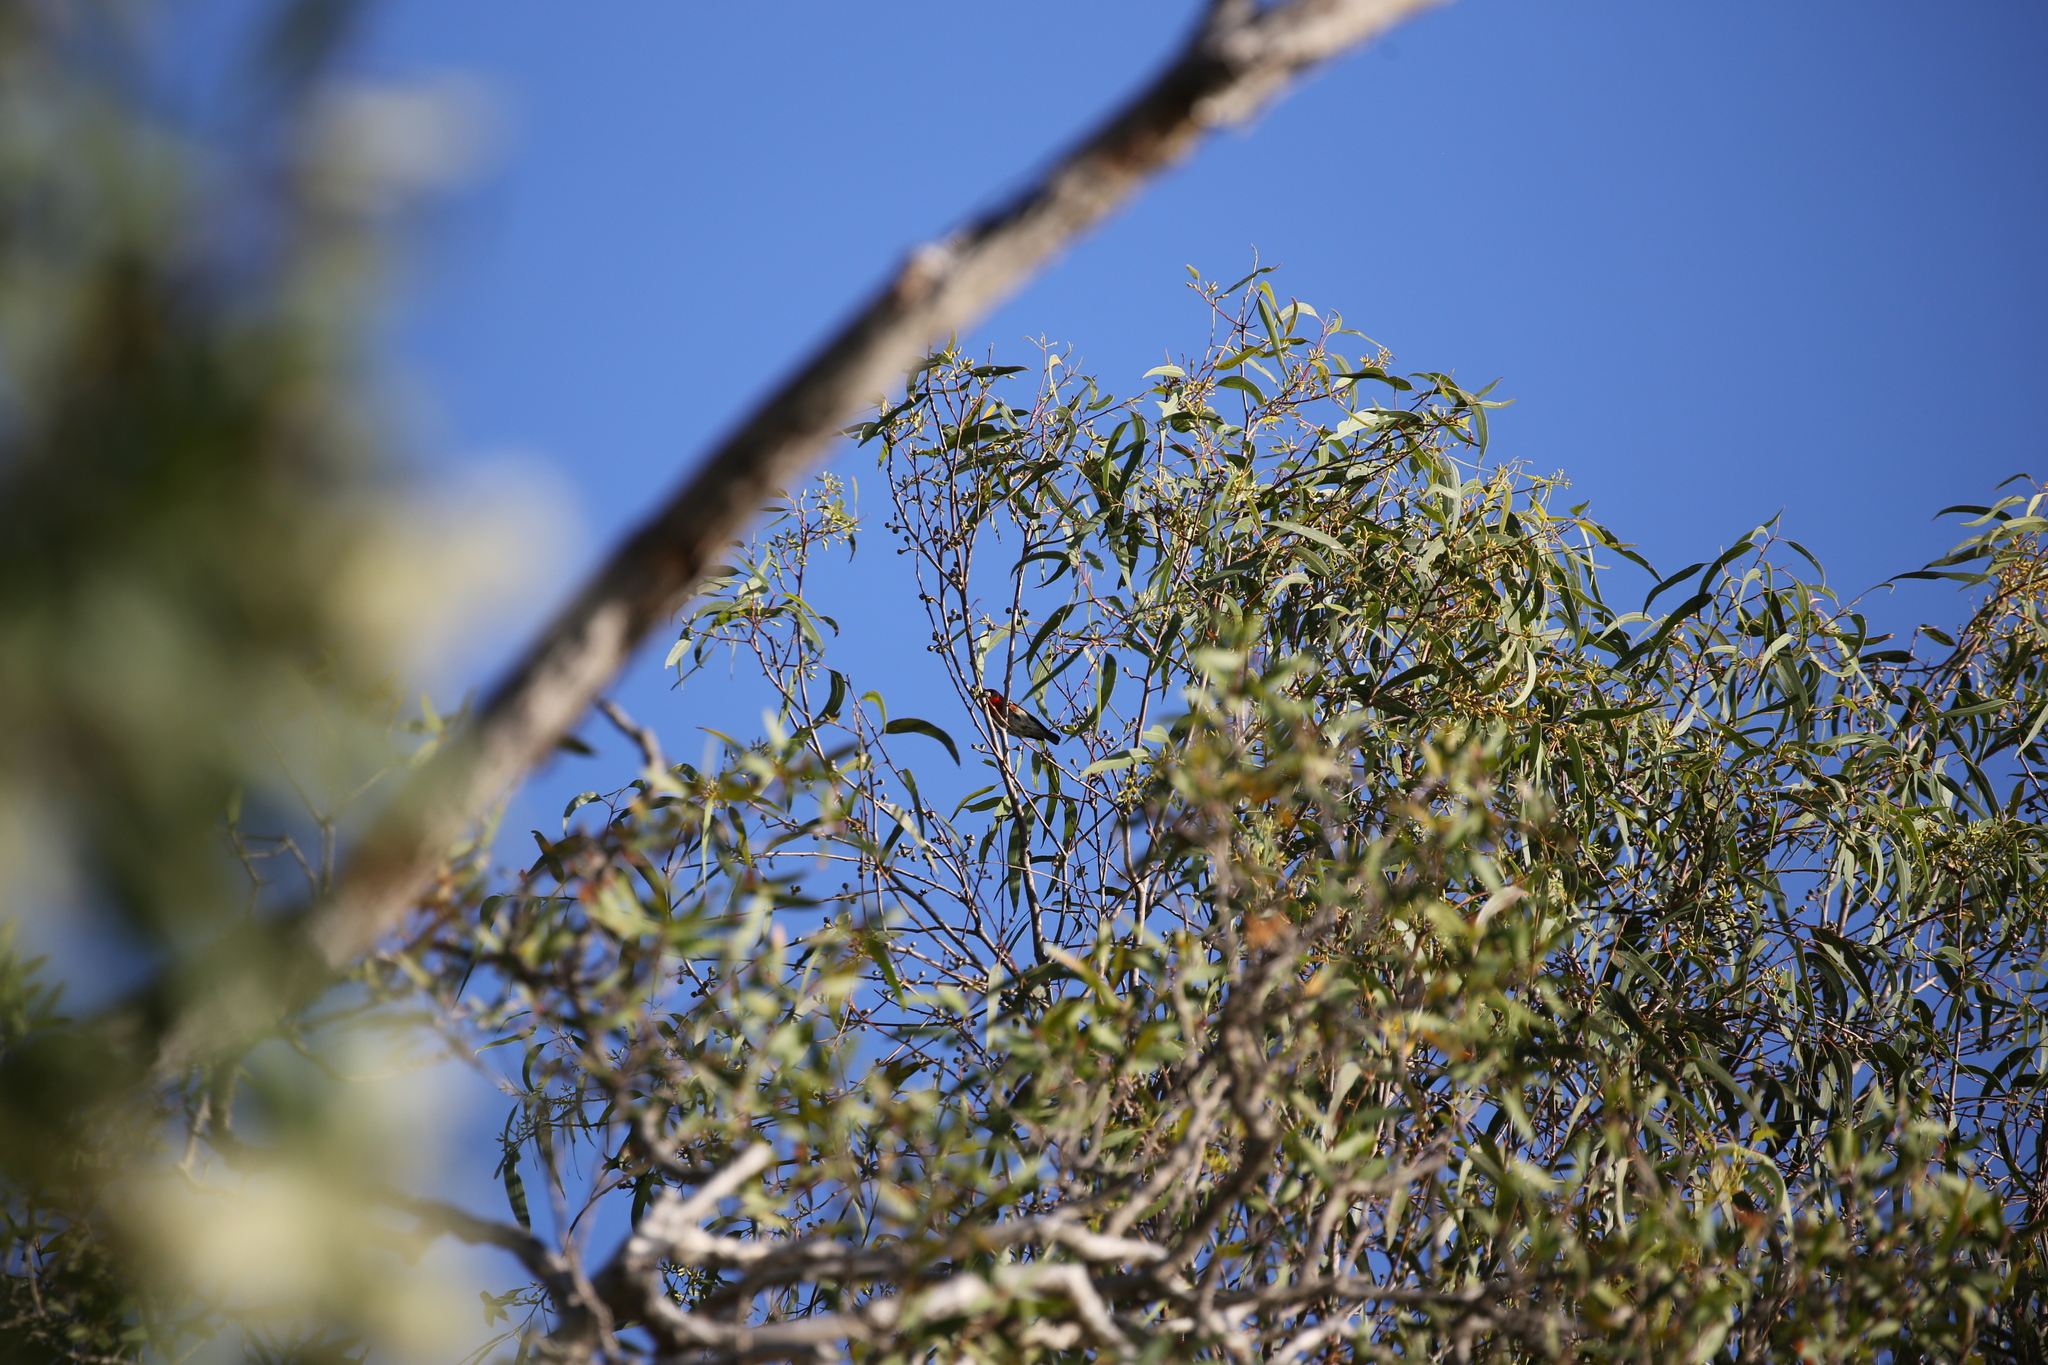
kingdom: Animalia
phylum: Chordata
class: Aves
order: Passeriformes
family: Meliphagidae
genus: Myzomela
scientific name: Myzomela sanguinolenta
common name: Scarlet myzomela
